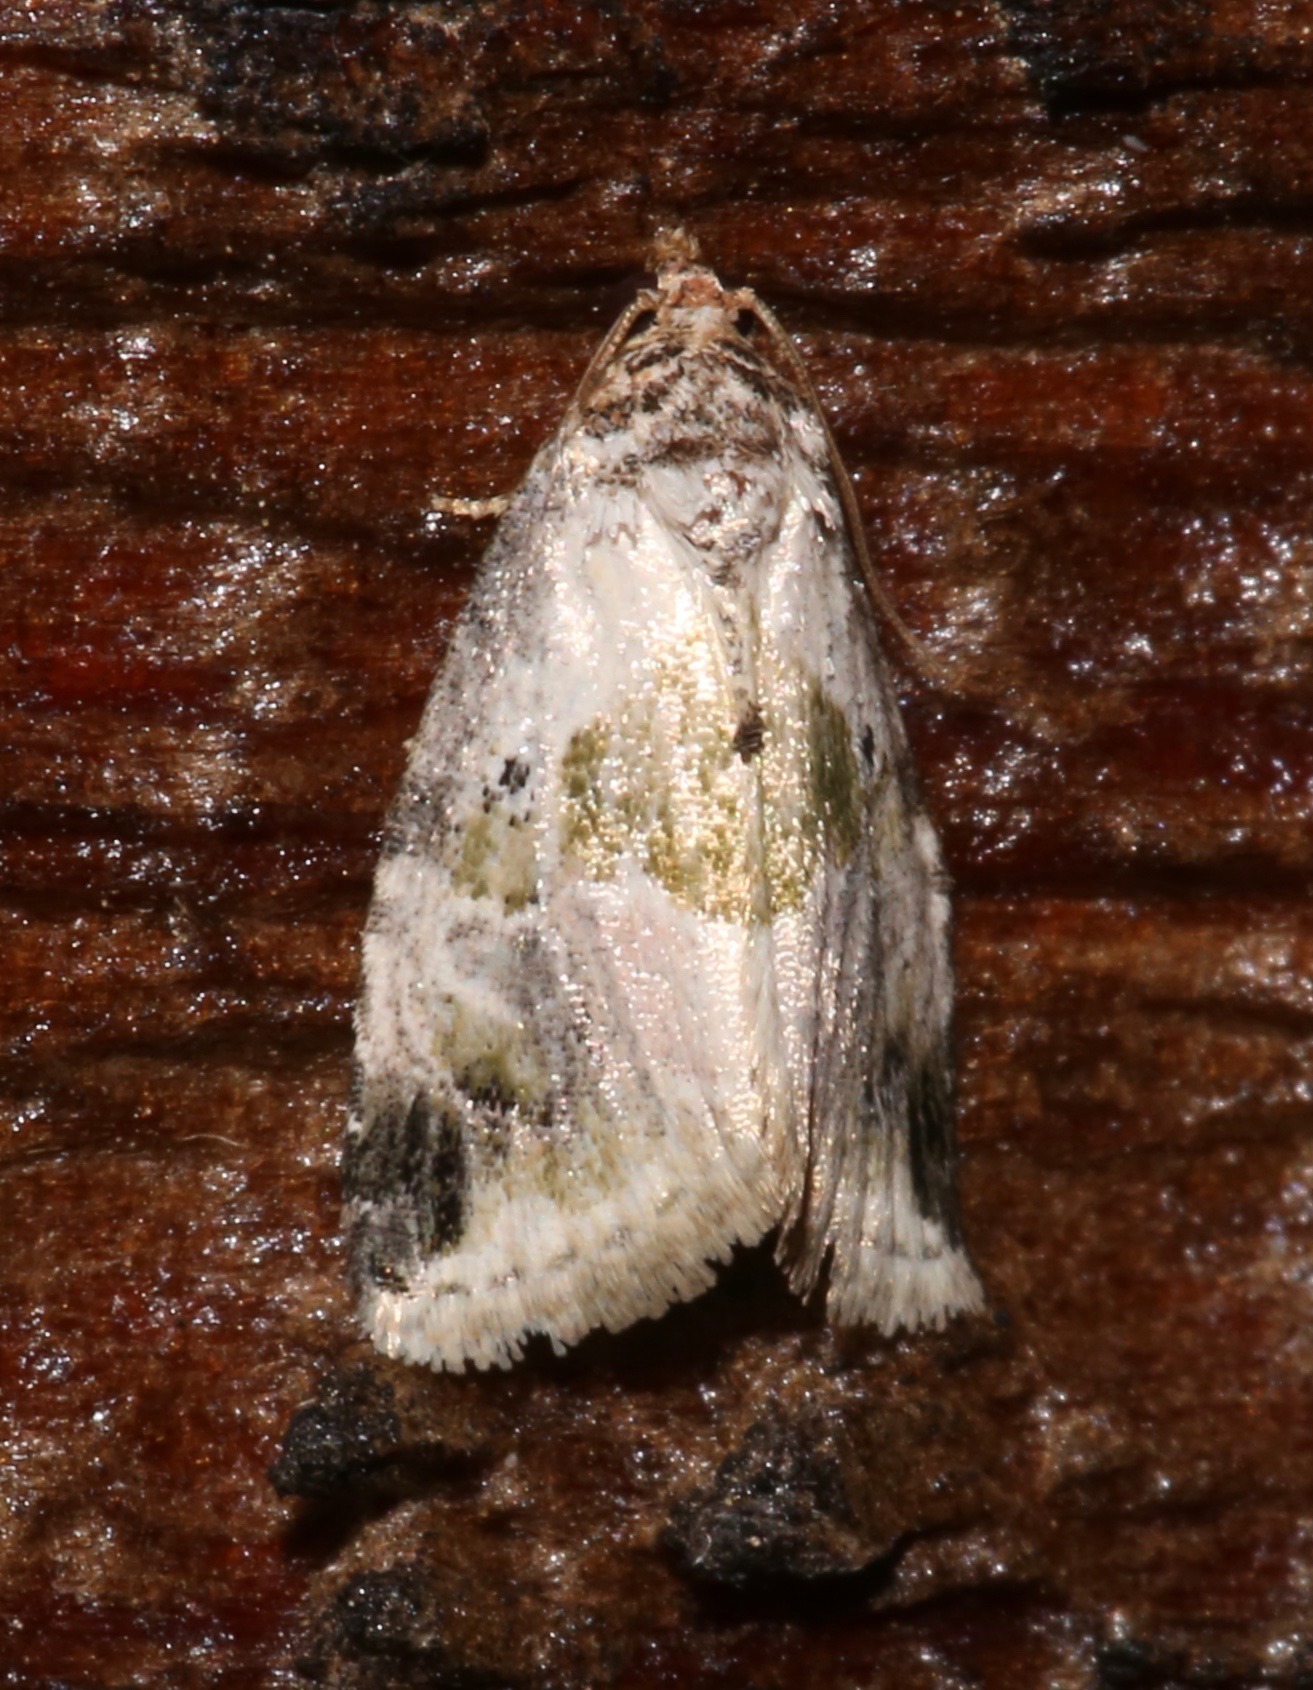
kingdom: Animalia
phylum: Arthropoda
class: Insecta
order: Lepidoptera
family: Noctuidae
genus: Maliattha
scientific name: Maliattha synochitis
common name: Black-dotted glyph
